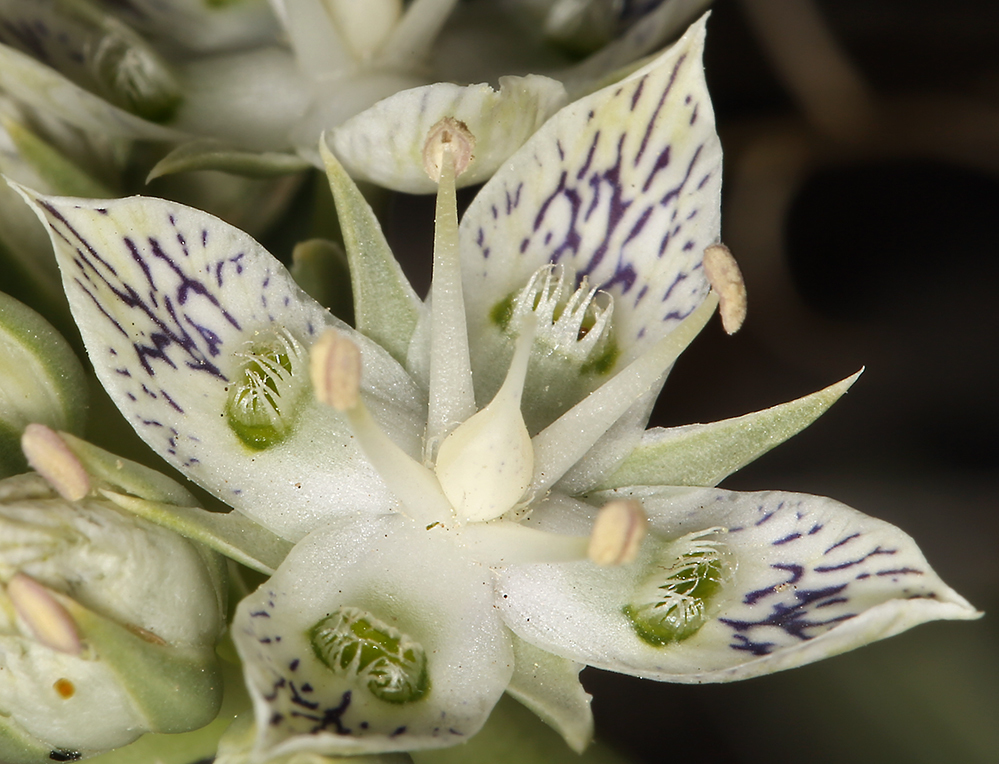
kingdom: Plantae
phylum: Tracheophyta
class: Magnoliopsida
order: Gentianales
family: Gentianaceae
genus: Frasera
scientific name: Frasera neglecta
